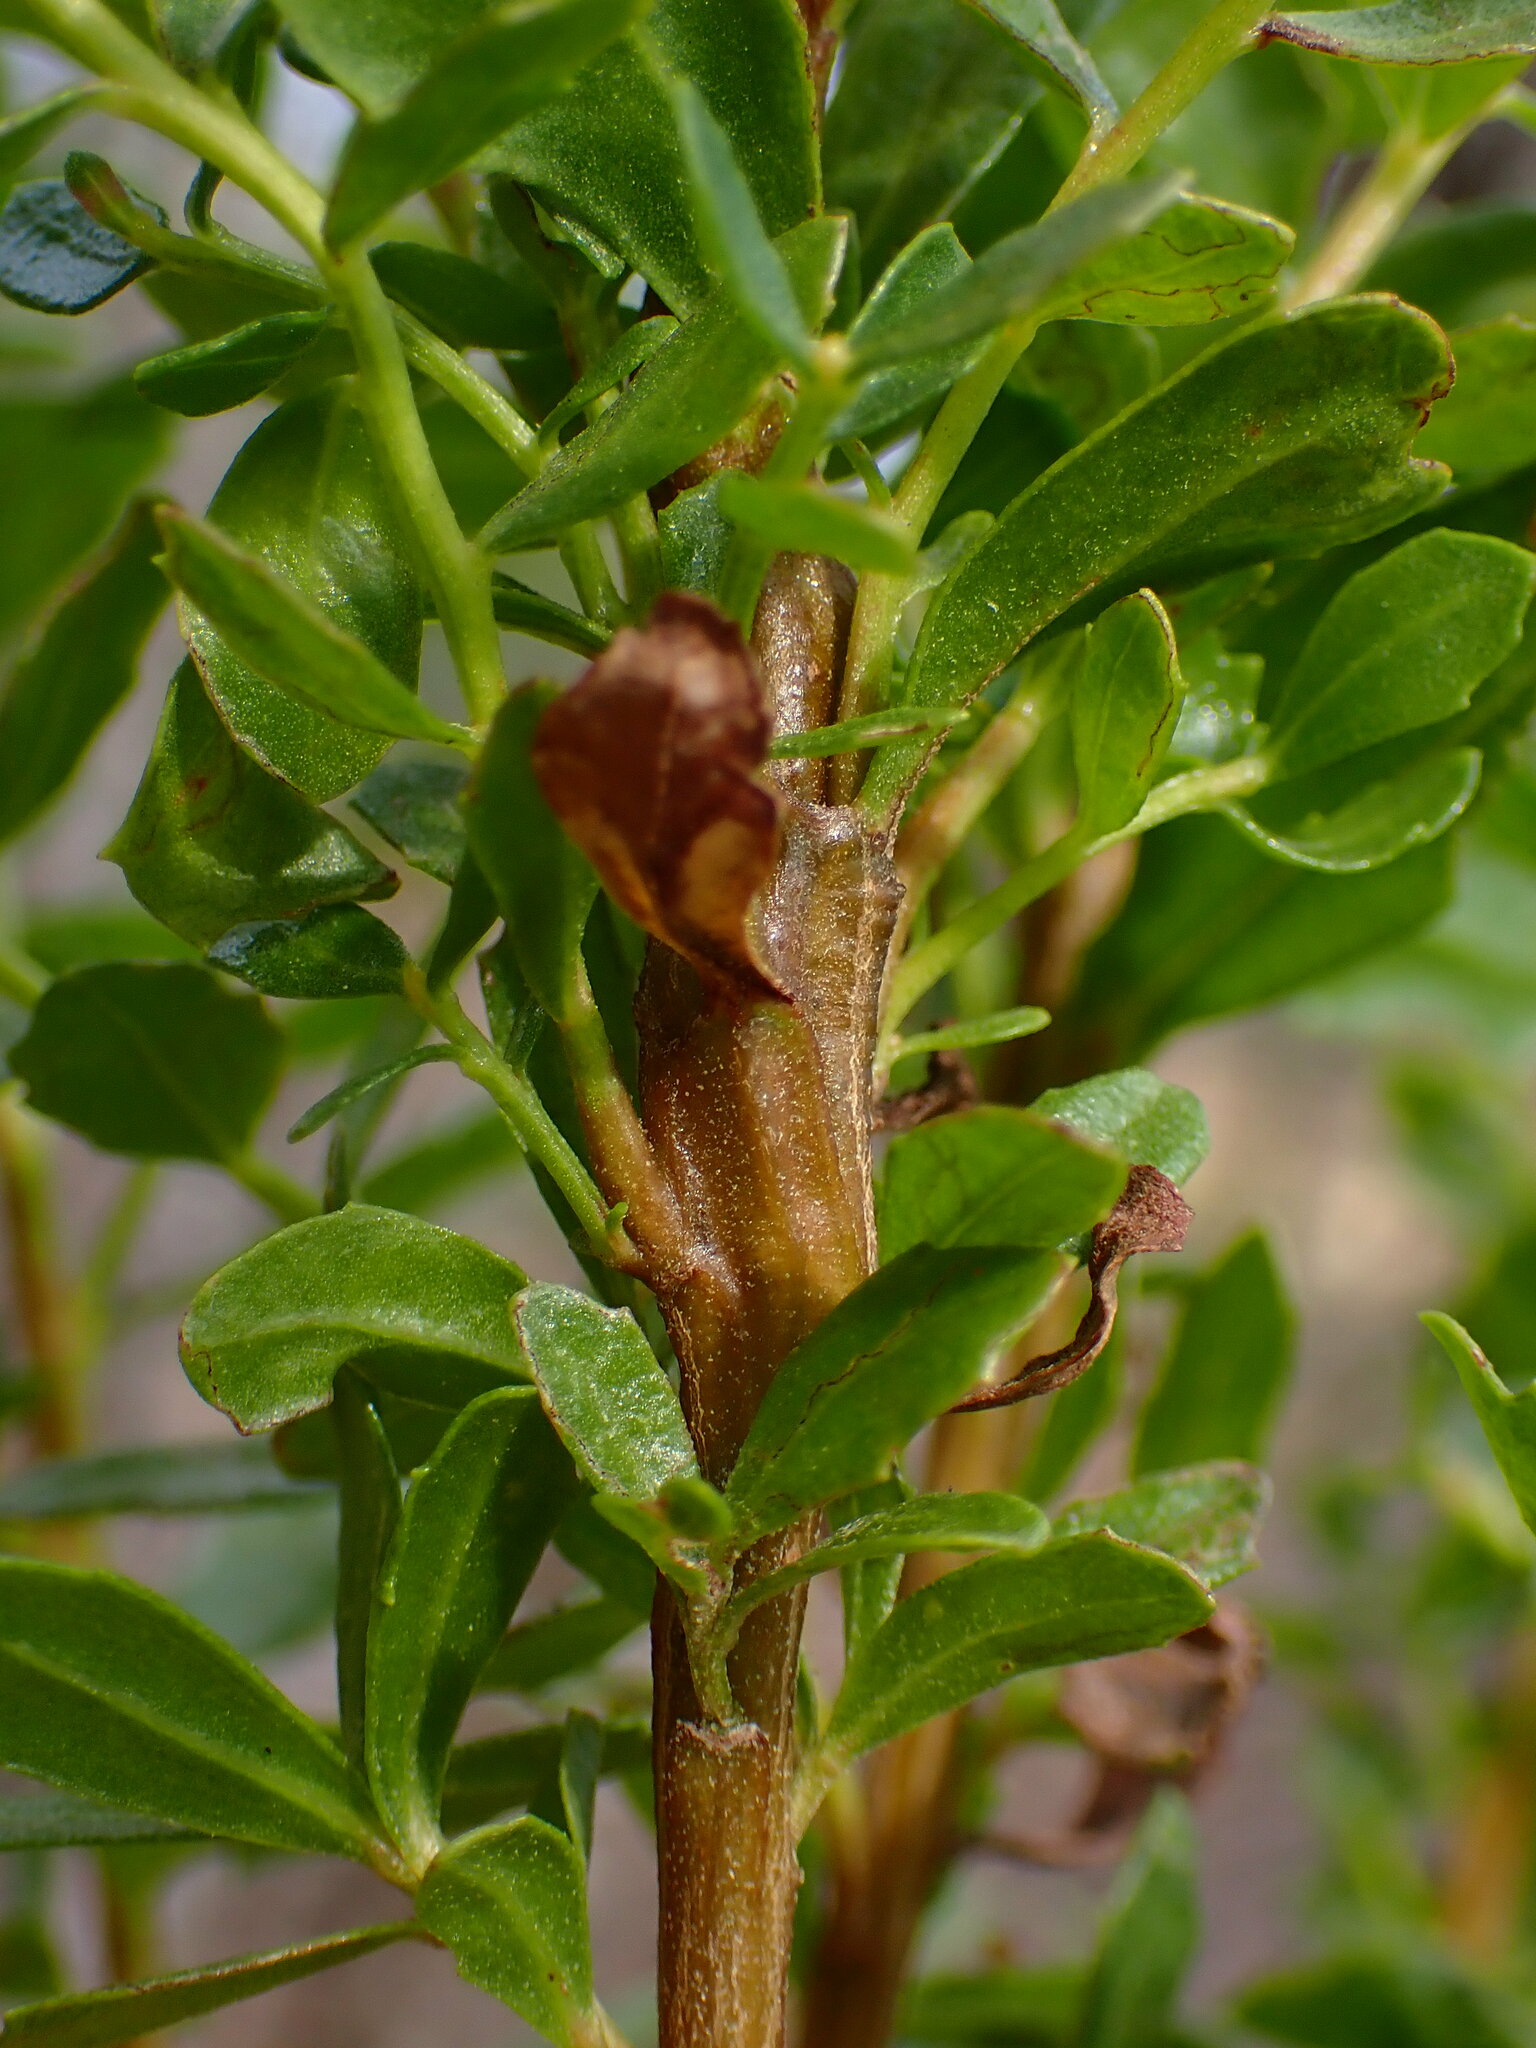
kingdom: Animalia
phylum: Arthropoda
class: Insecta
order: Diptera
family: Cecidomyiidae
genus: Rhopalomyia
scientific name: Rhopalomyia baccharis
